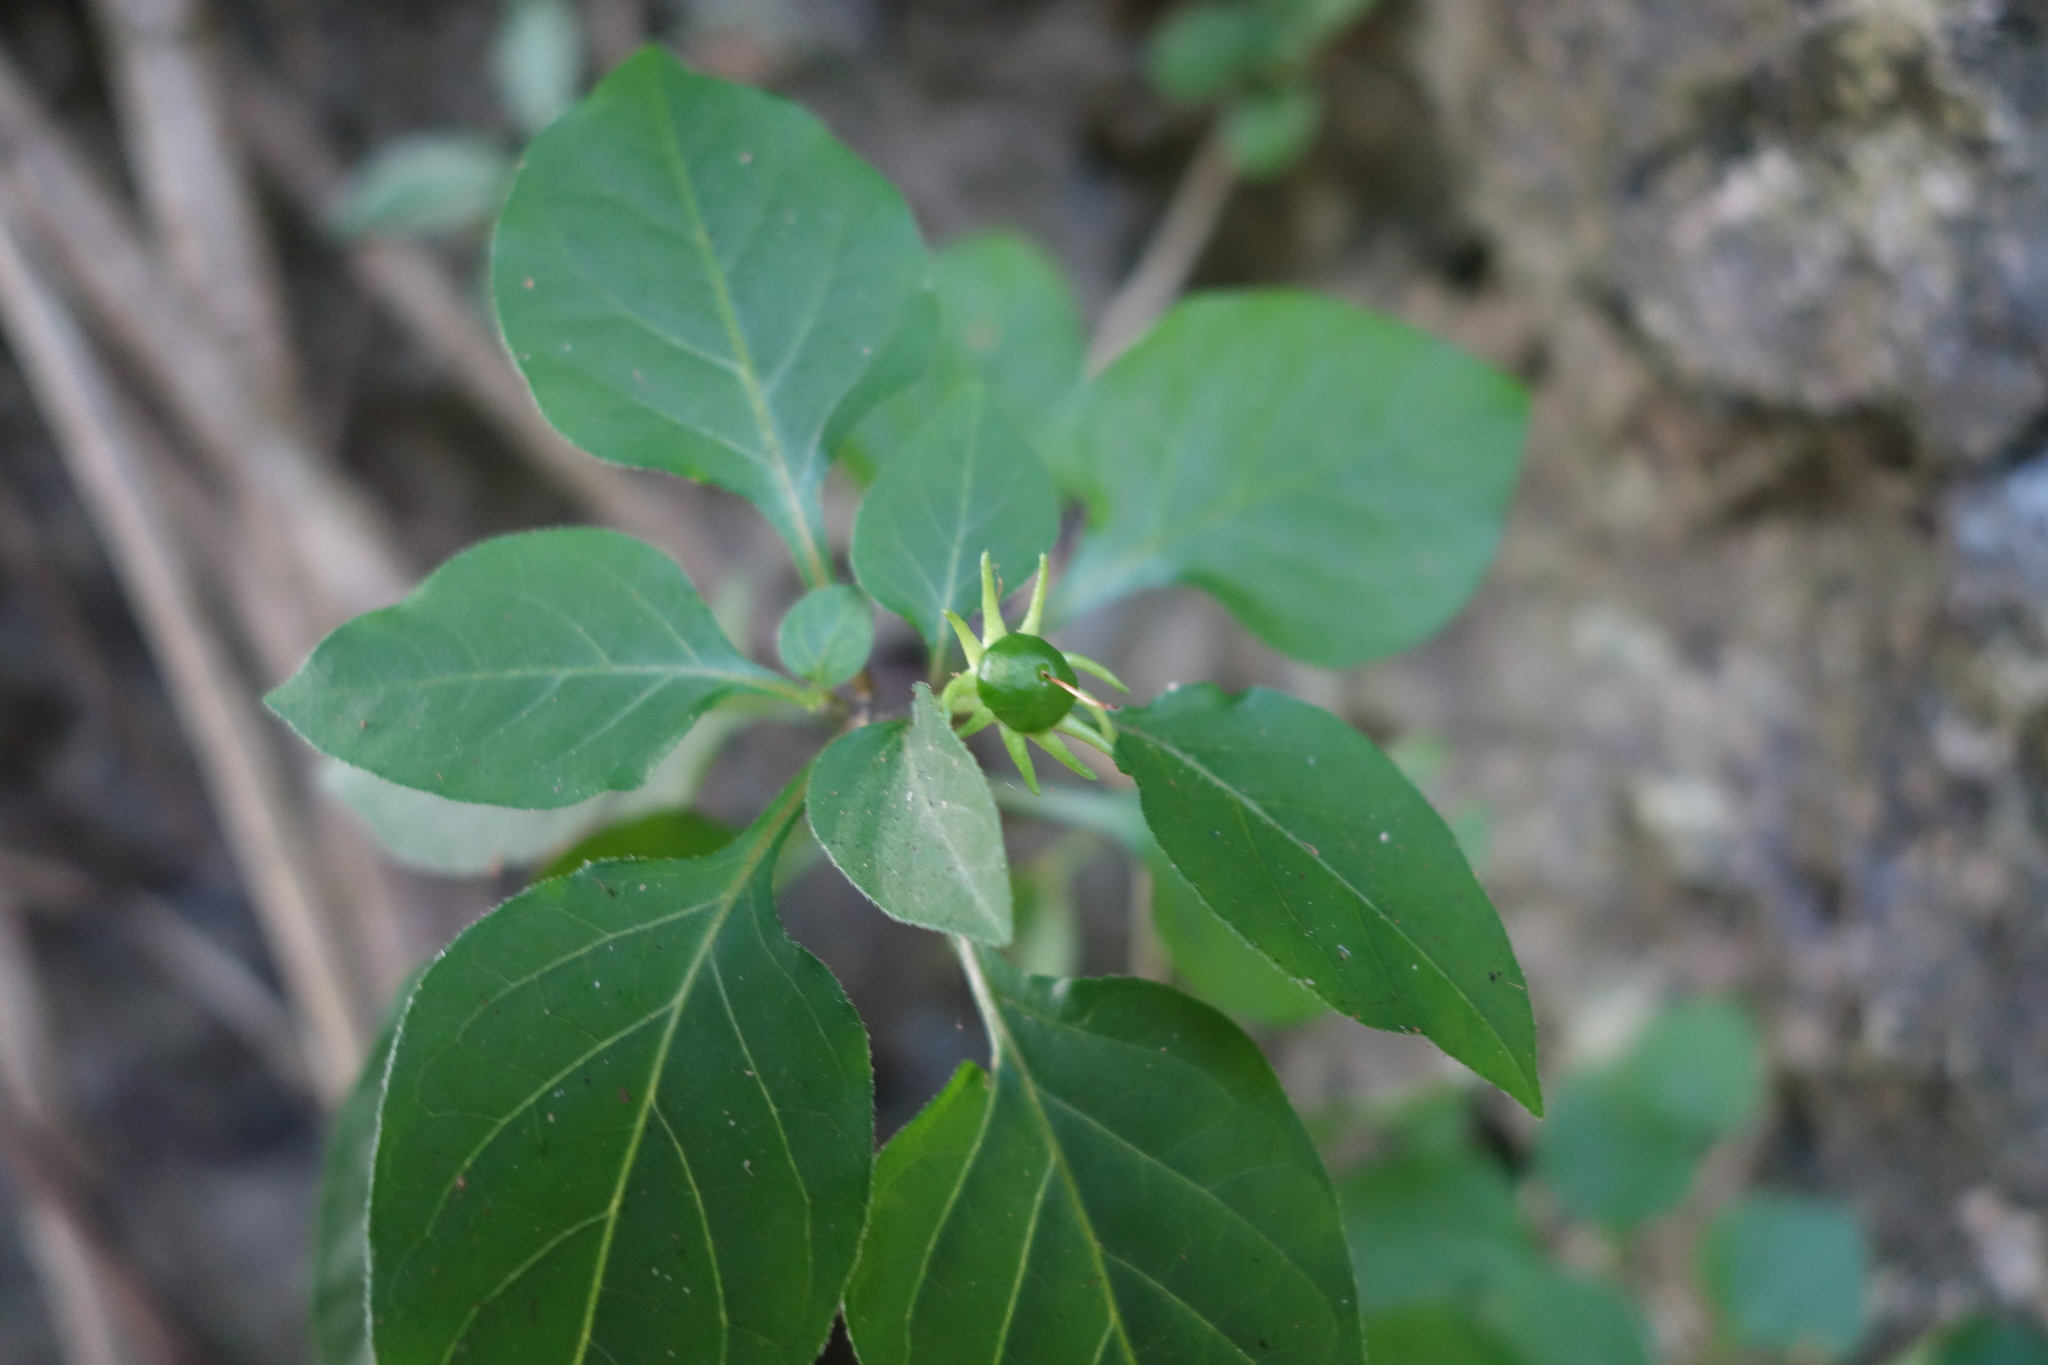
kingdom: Plantae
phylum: Tracheophyta
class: Magnoliopsida
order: Solanales
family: Solanaceae
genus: Lycianthes
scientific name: Lycianthes biflora
